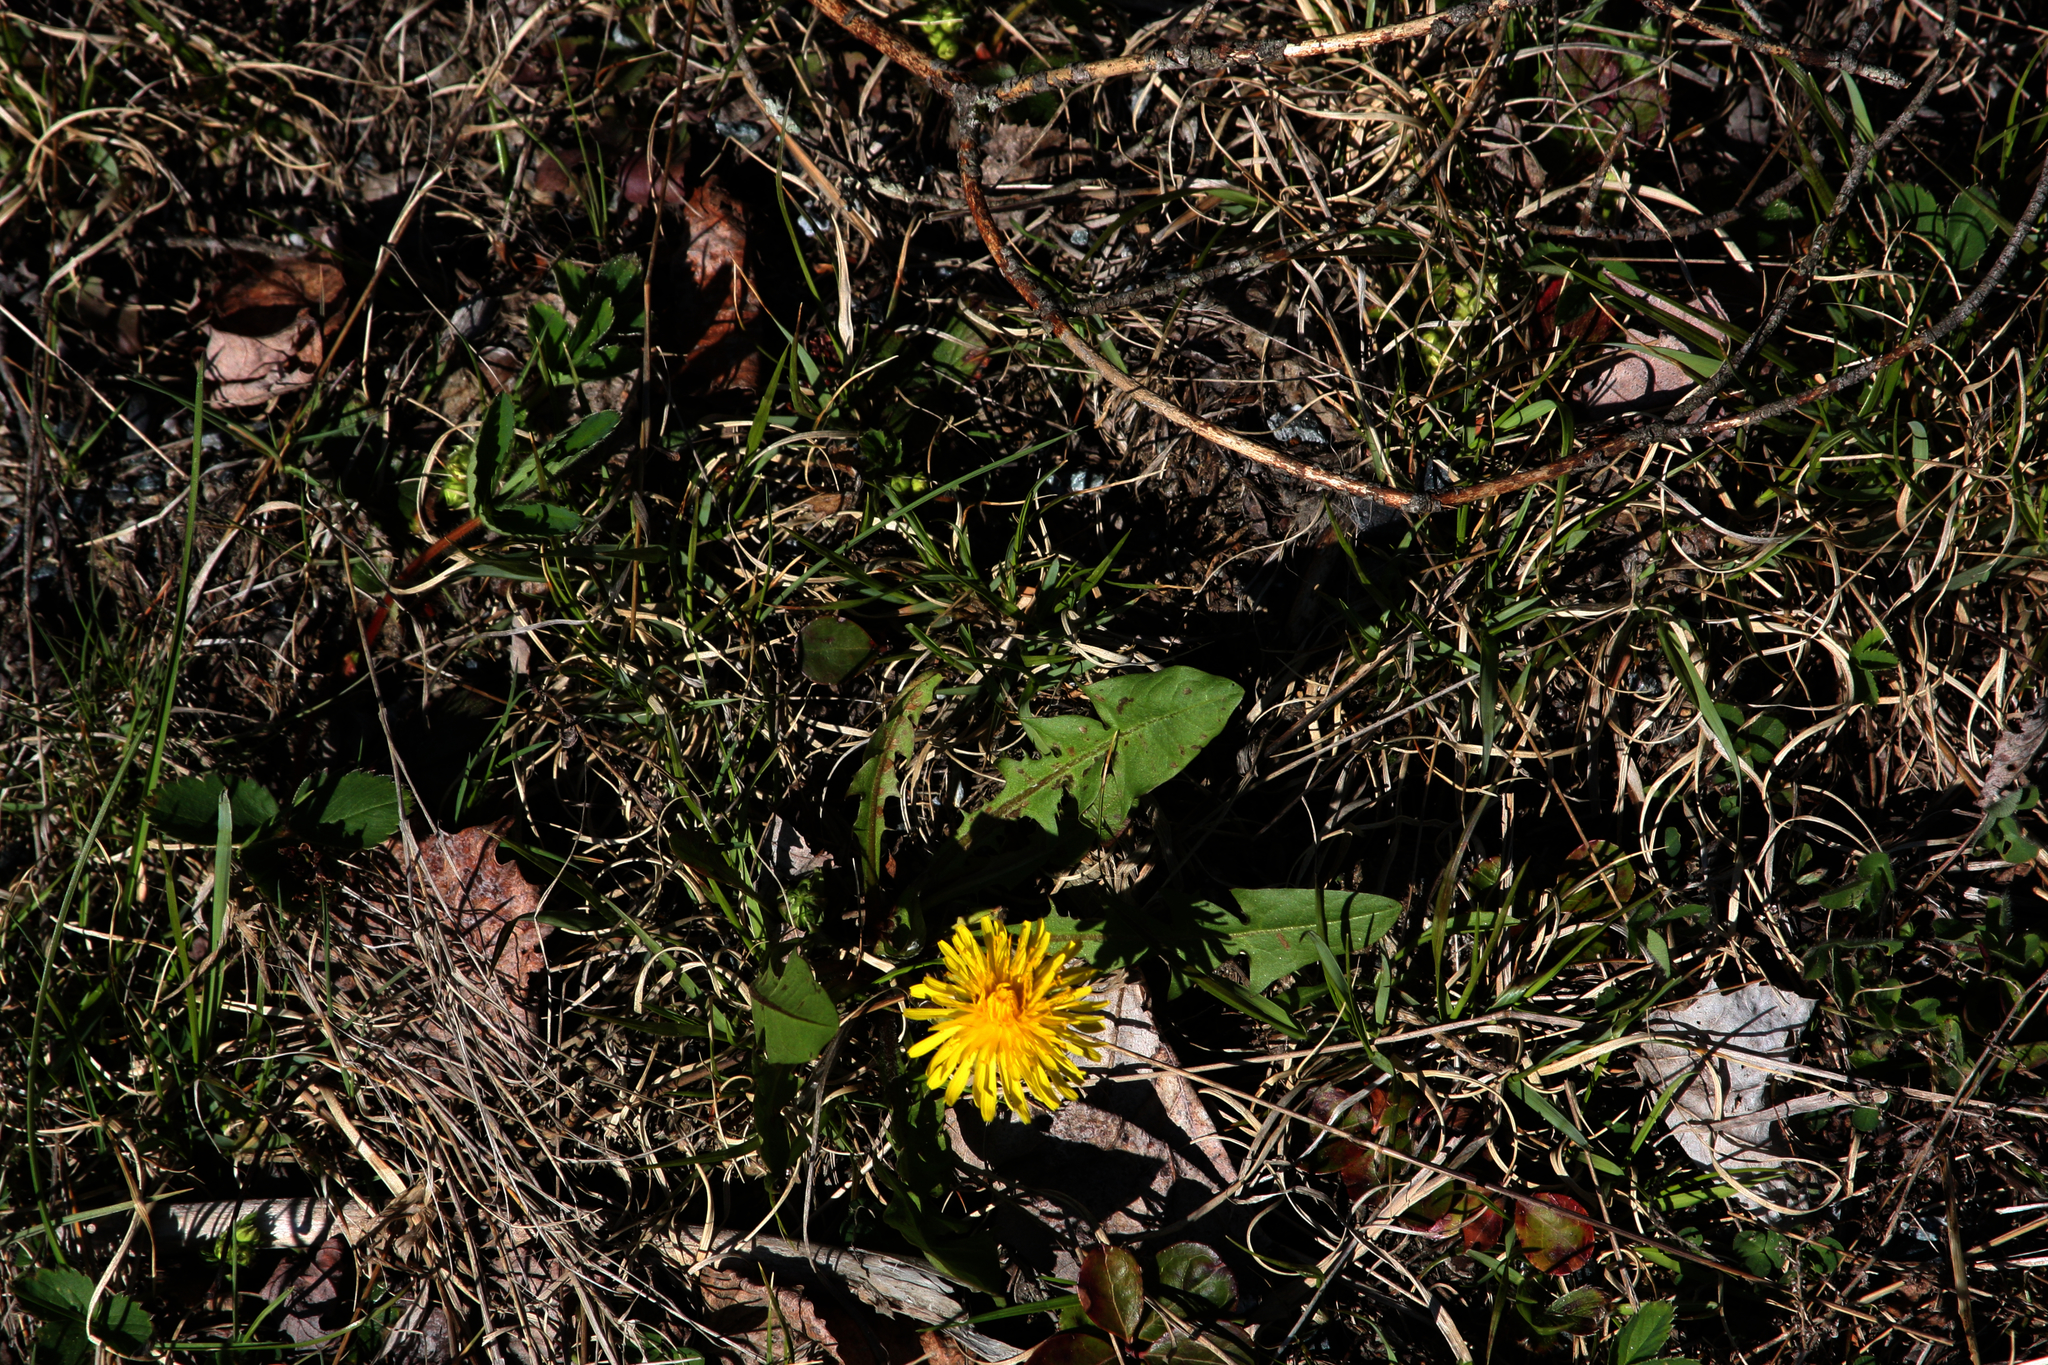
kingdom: Plantae
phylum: Tracheophyta
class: Magnoliopsida
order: Asterales
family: Asteraceae
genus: Taraxacum
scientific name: Taraxacum officinale
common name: Common dandelion
